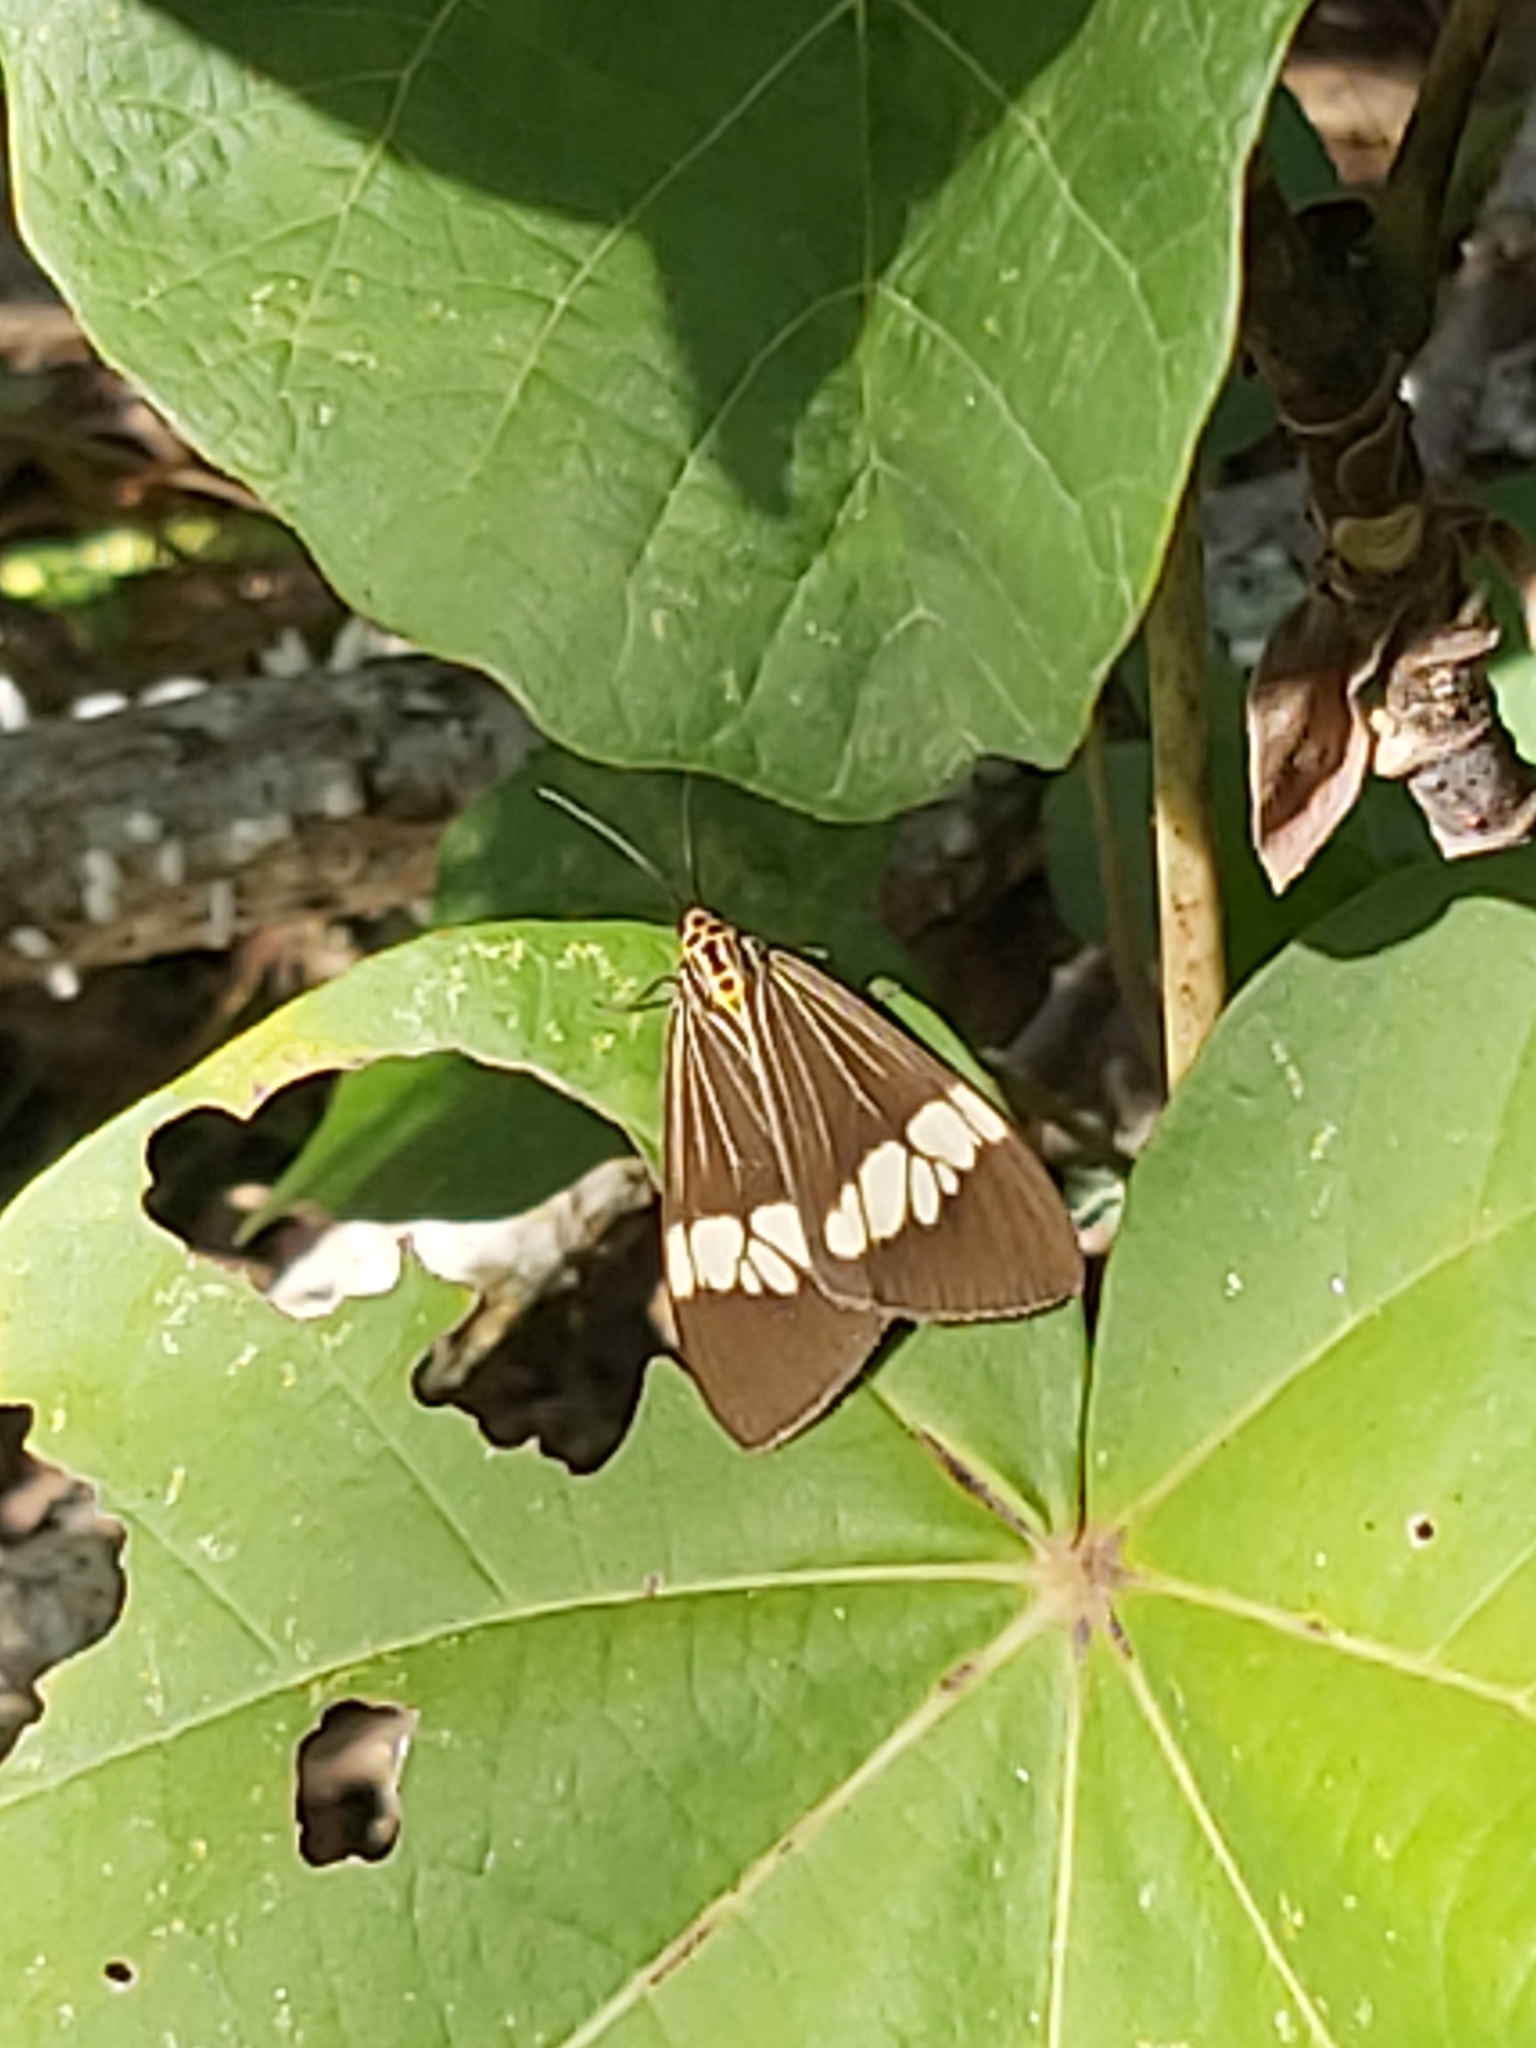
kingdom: Animalia
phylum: Arthropoda
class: Insecta
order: Lepidoptera
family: Erebidae
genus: Nyctemera
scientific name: Nyctemera baulus
